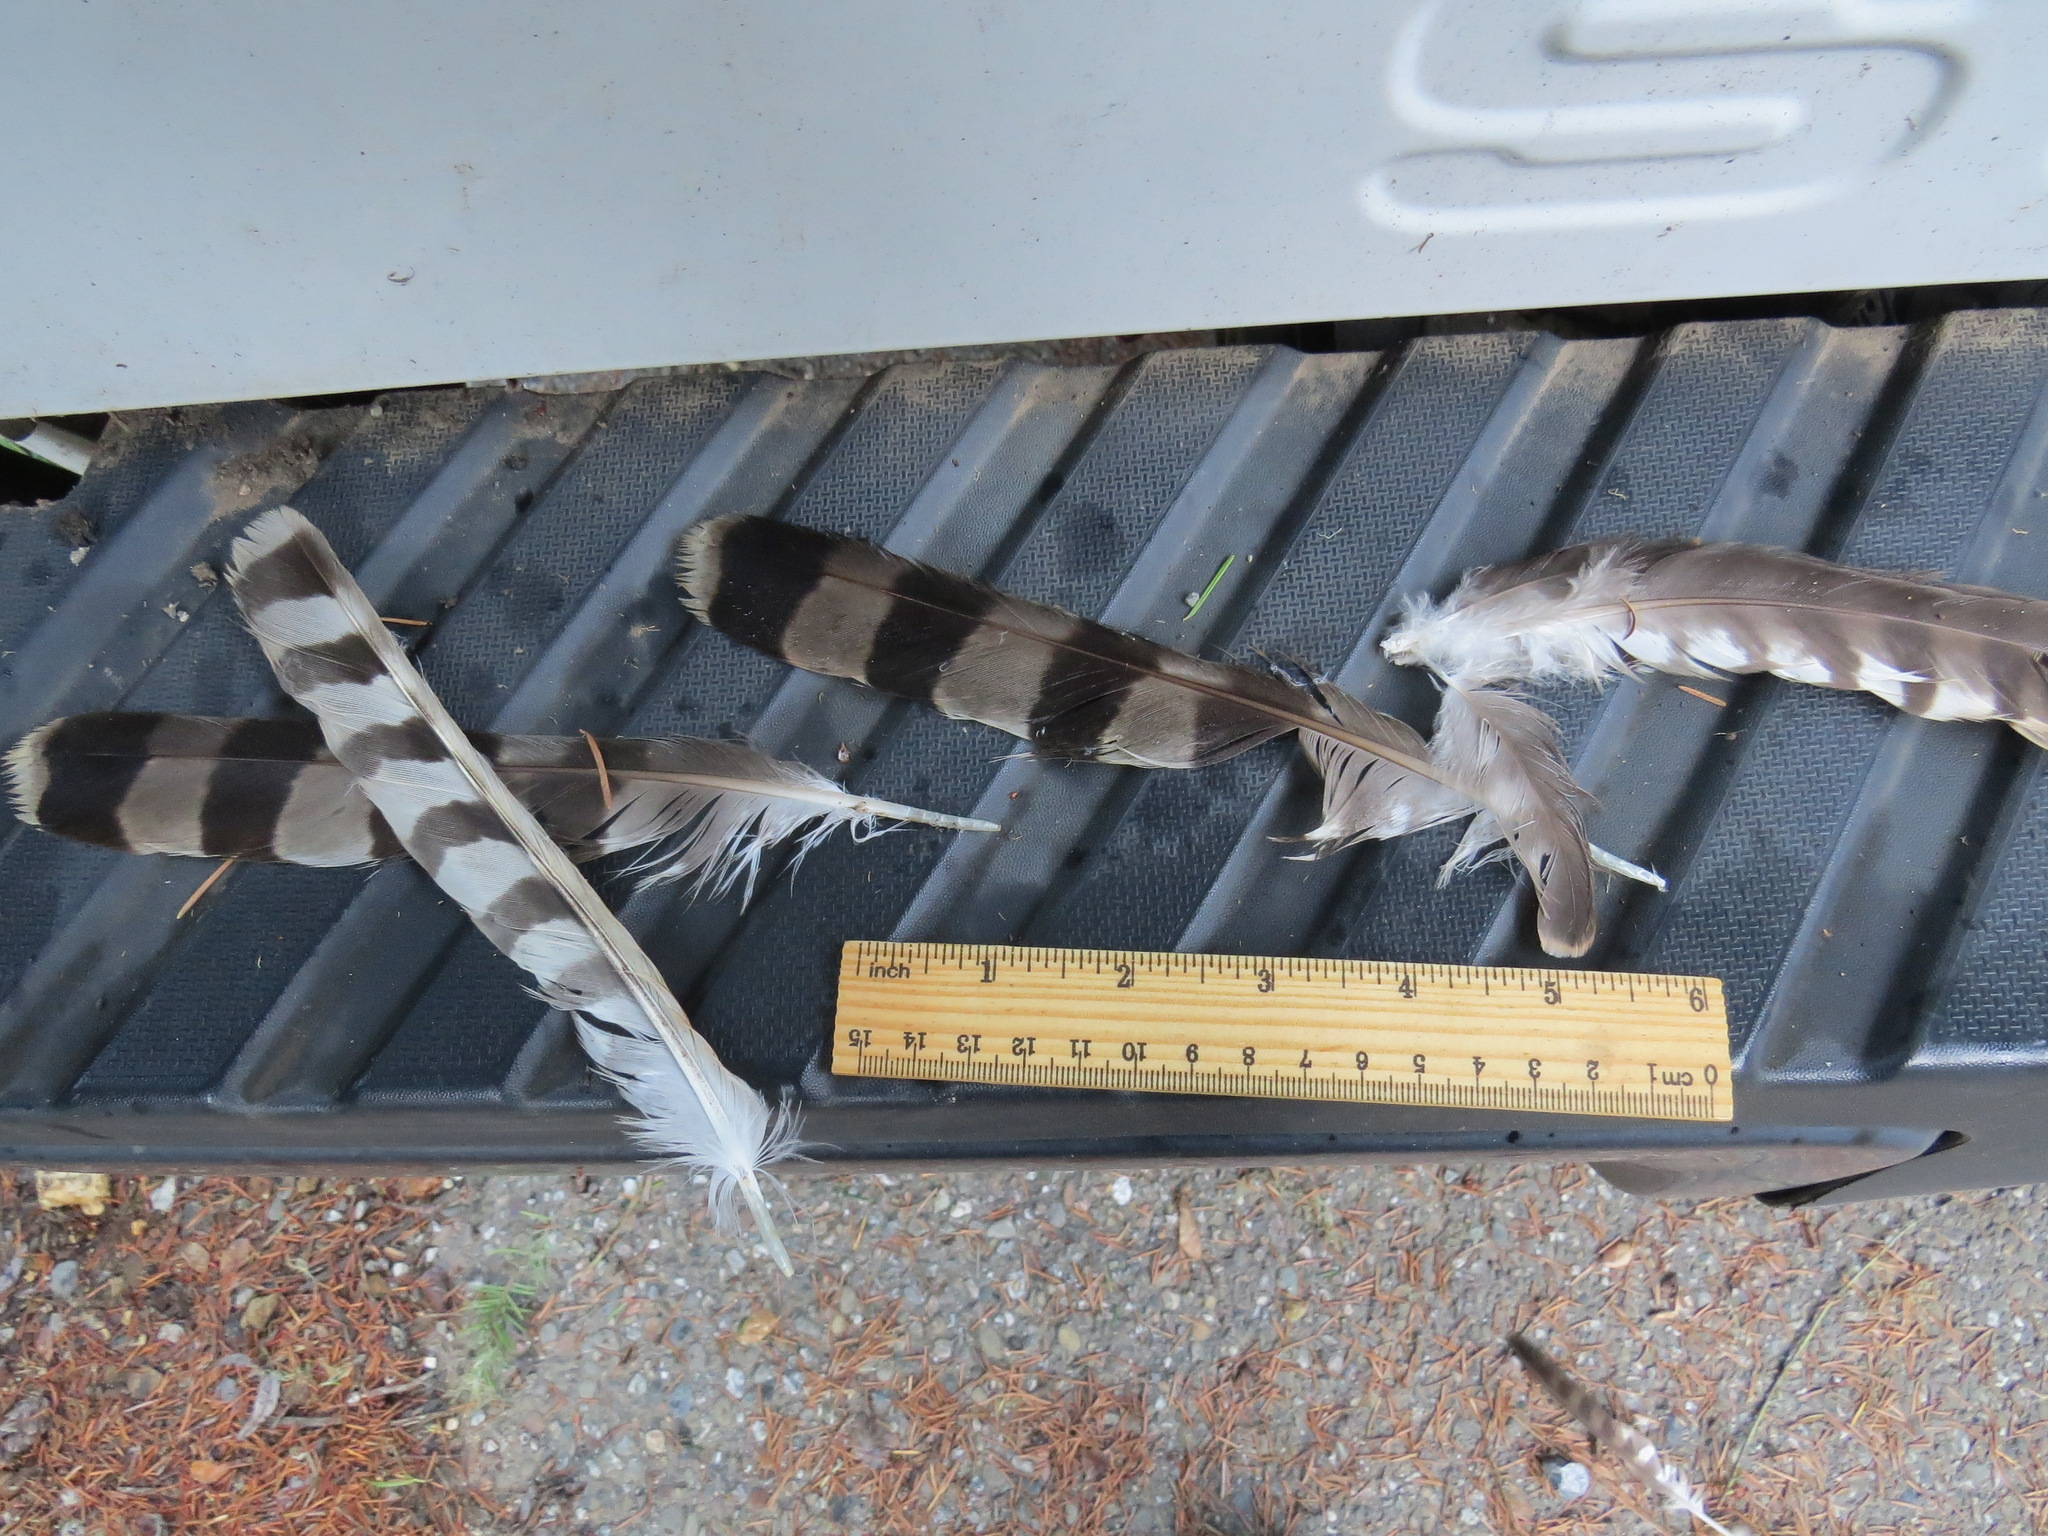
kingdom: Animalia
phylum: Chordata
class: Aves
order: Accipitriformes
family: Accipitridae
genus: Accipiter
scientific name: Accipiter cooperii
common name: Cooper's hawk
